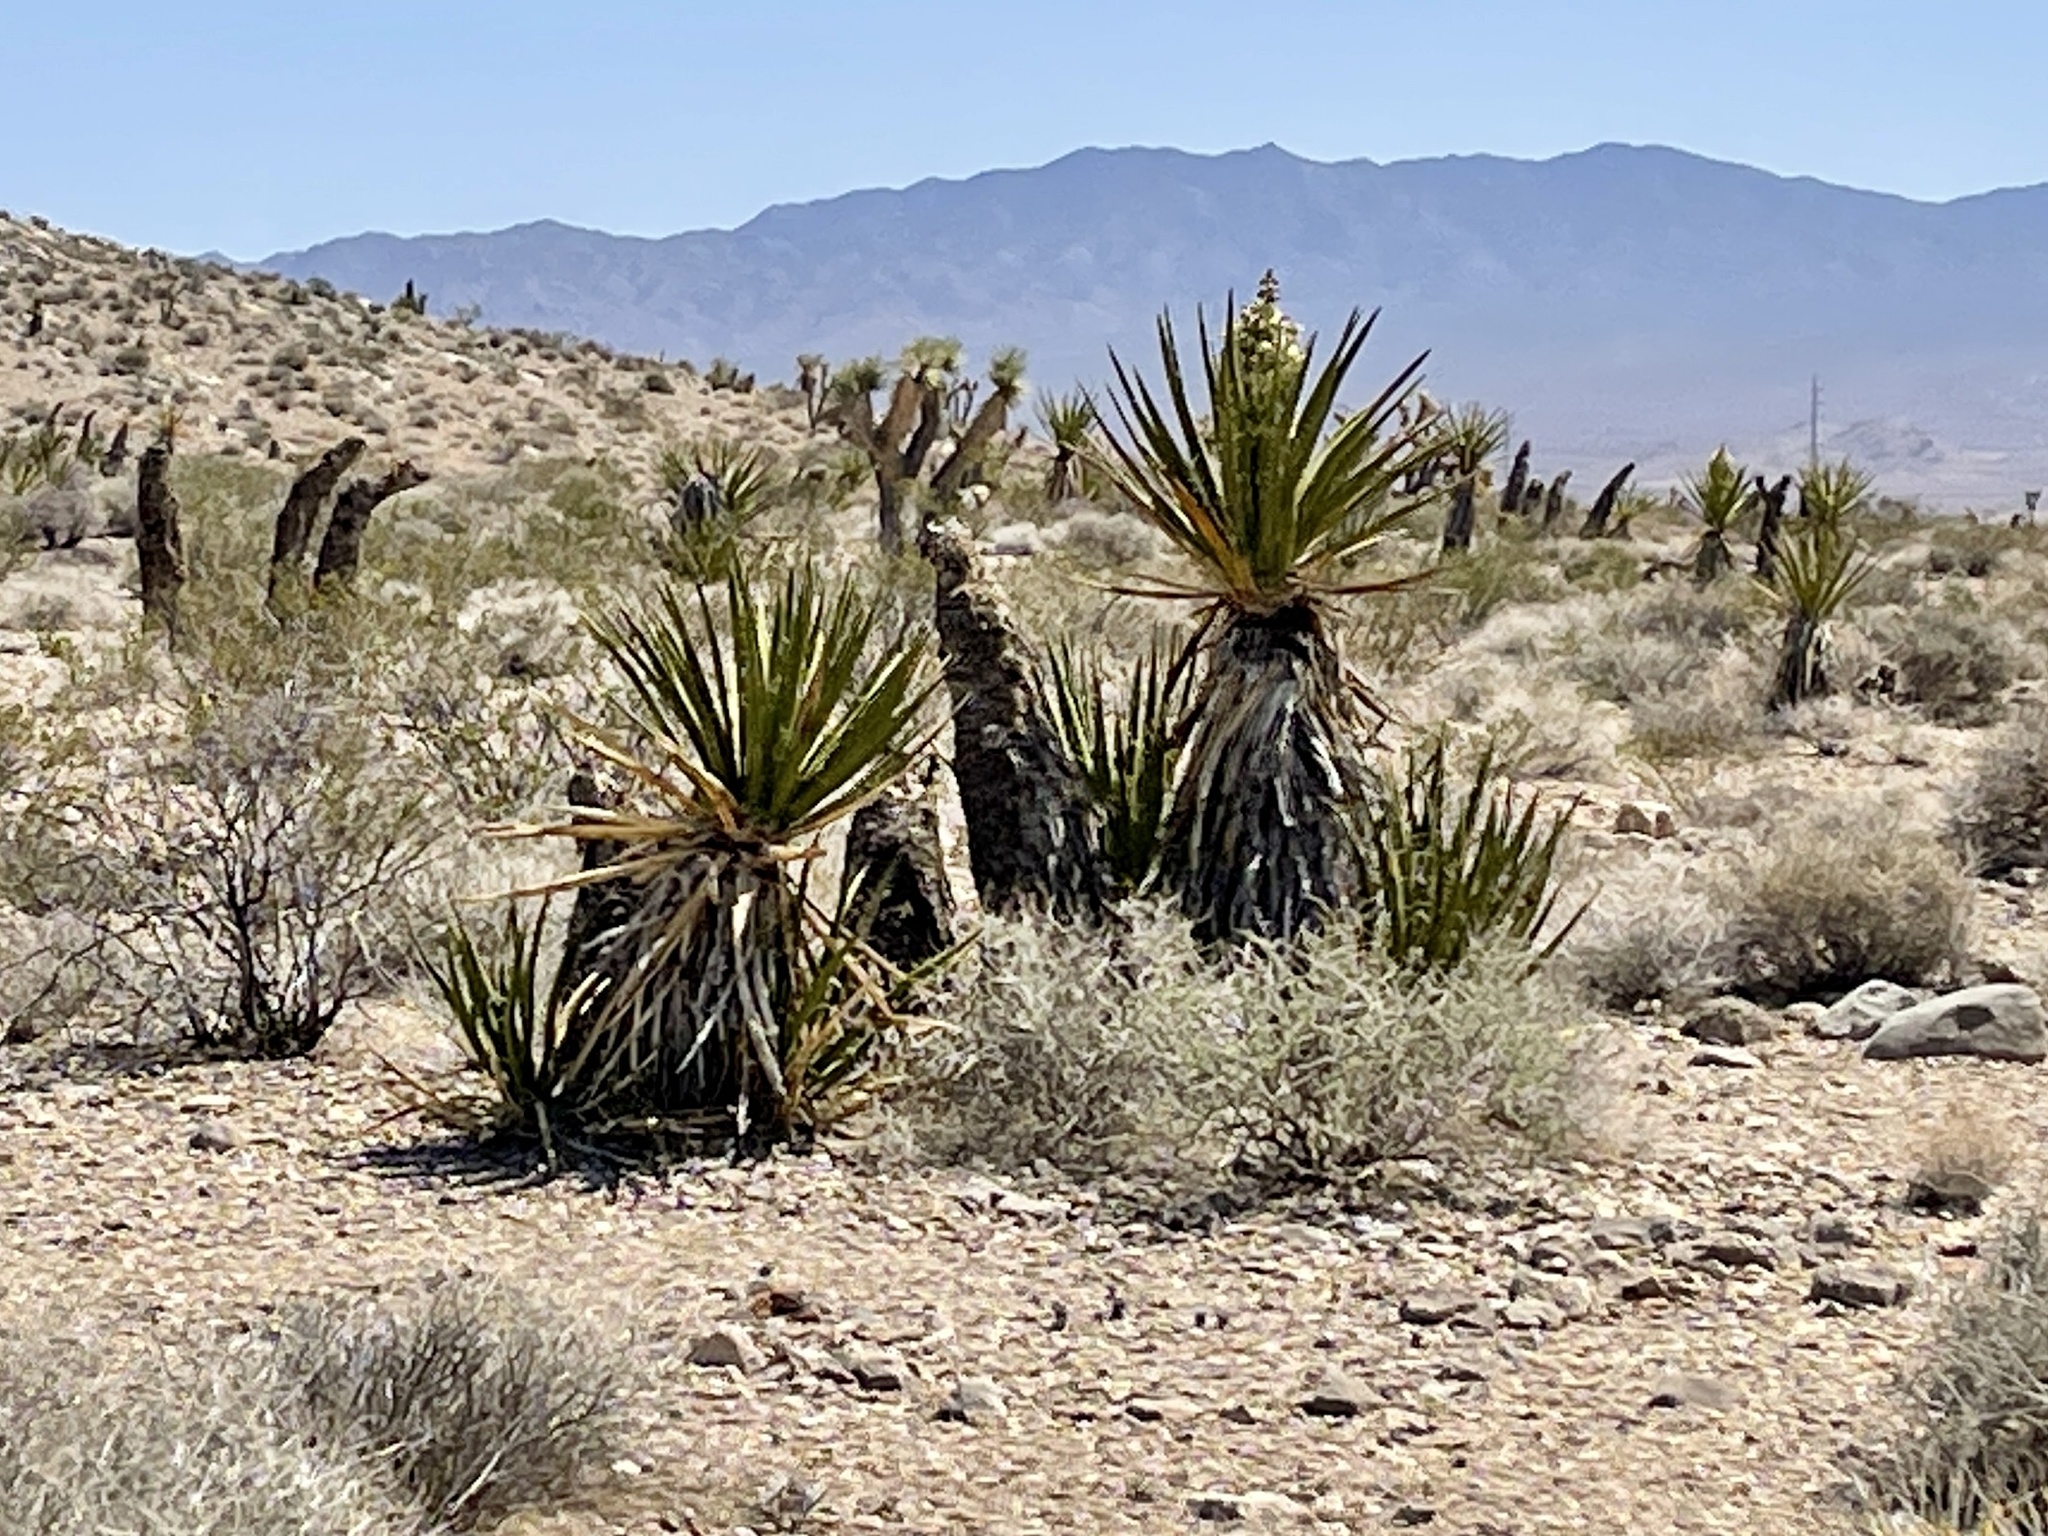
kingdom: Plantae
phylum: Tracheophyta
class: Liliopsida
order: Asparagales
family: Asparagaceae
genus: Yucca
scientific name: Yucca schidigera
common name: Mojave yucca
